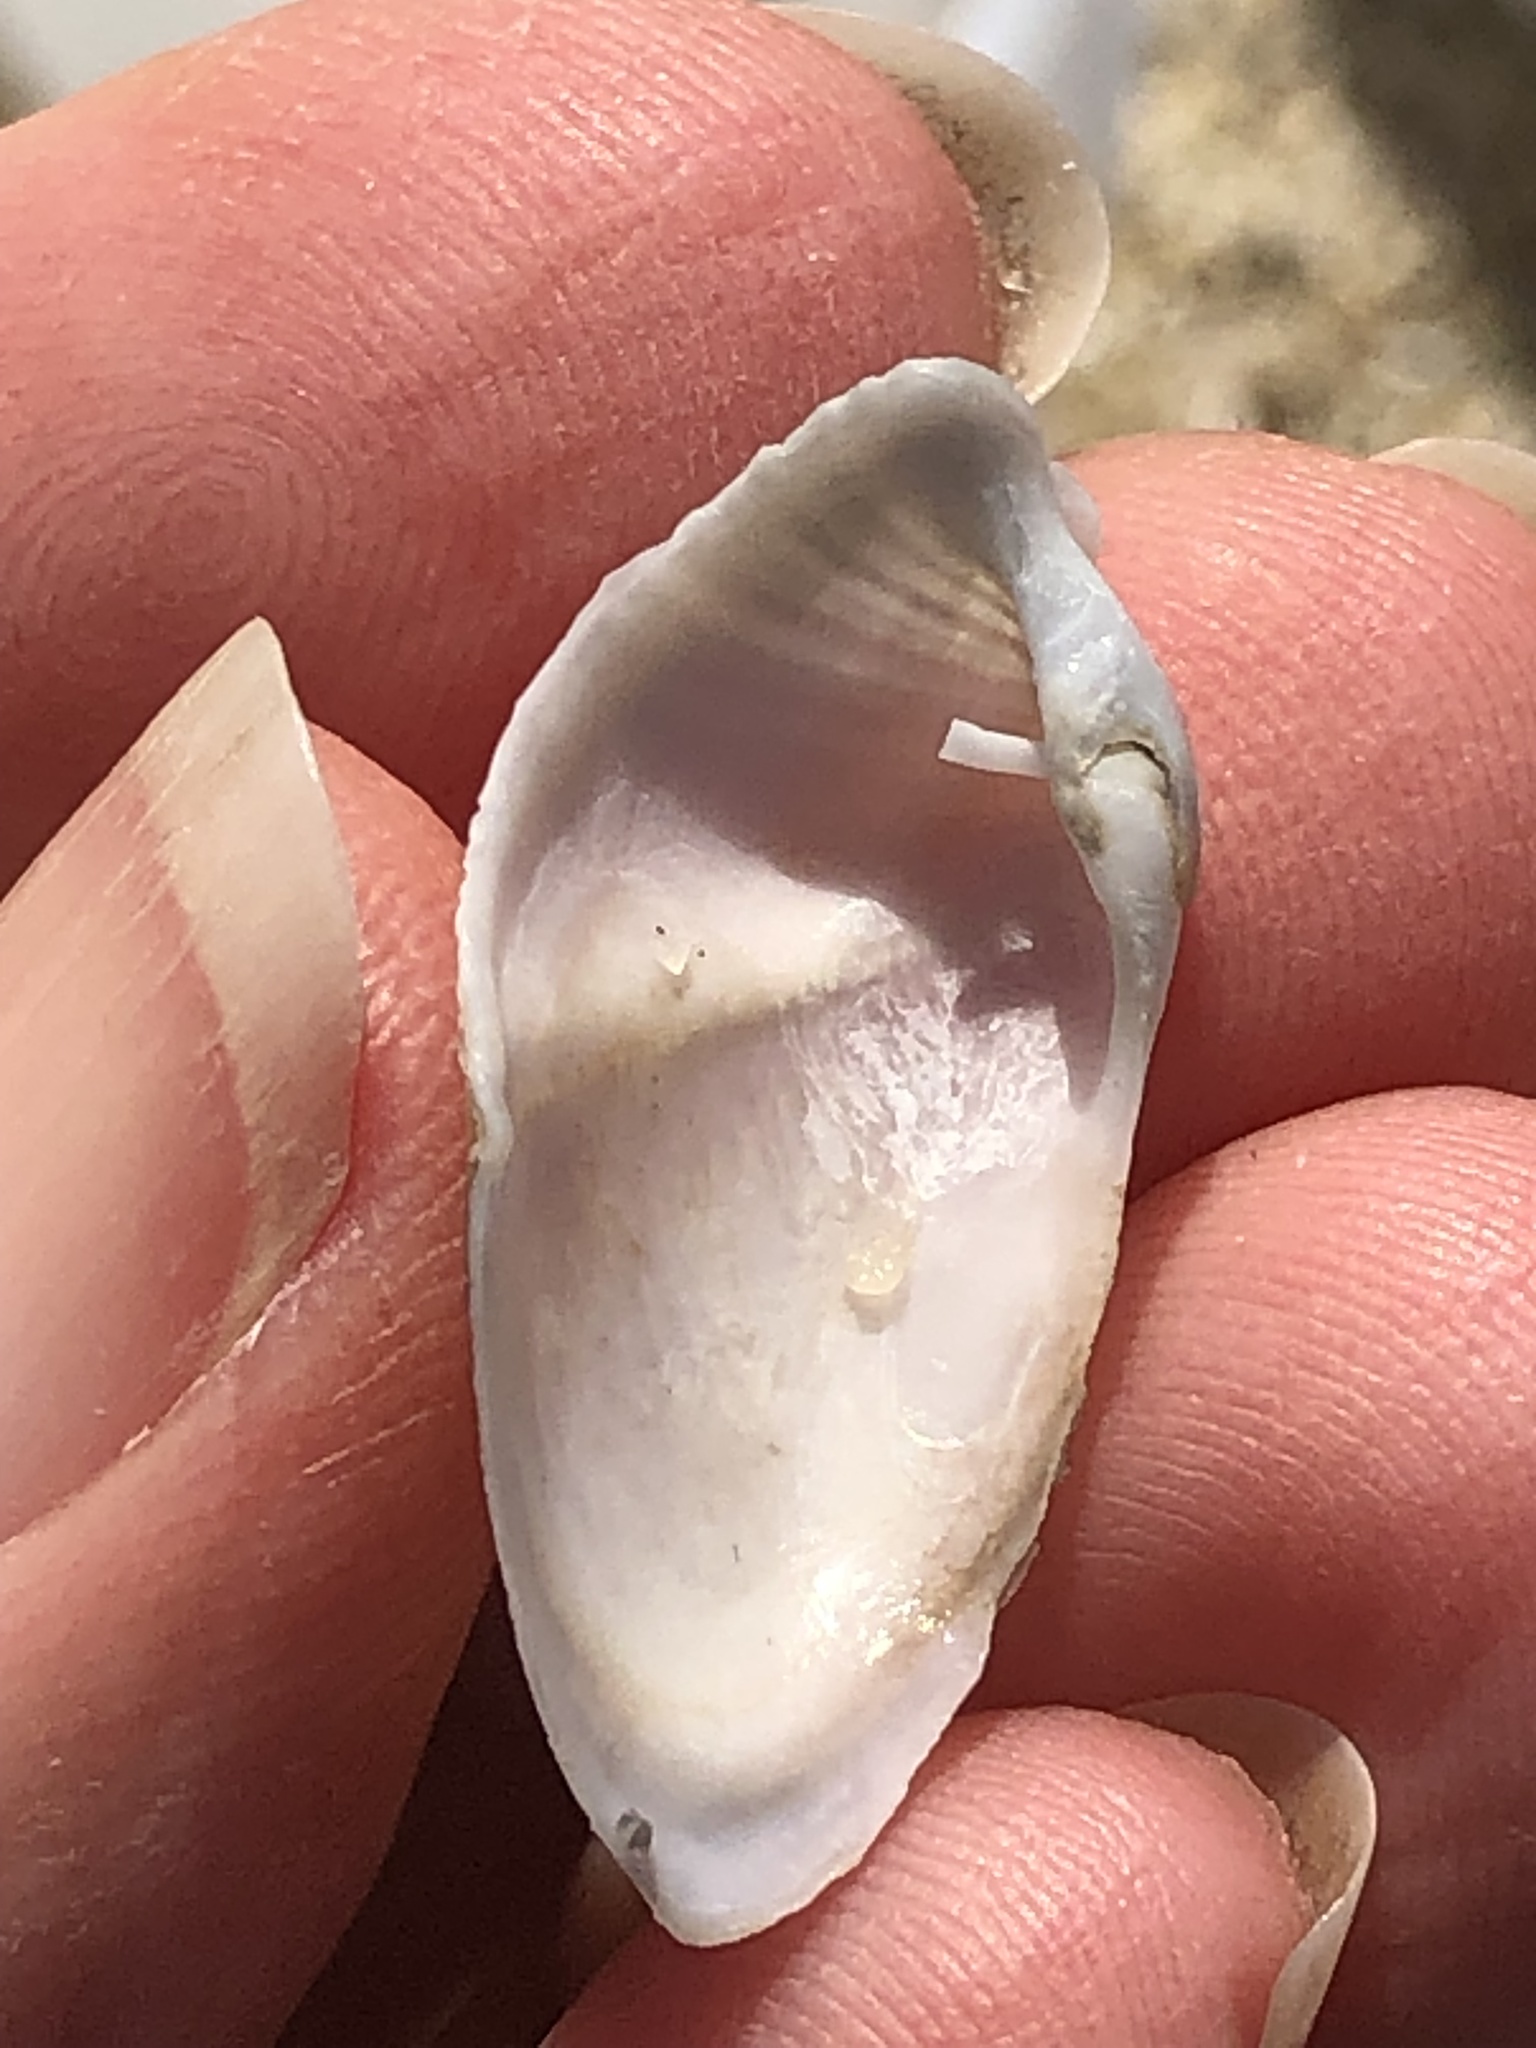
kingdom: Animalia
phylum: Mollusca
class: Bivalvia
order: Myida
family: Pholadidae
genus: Zirfaea
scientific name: Zirfaea pilsbryi
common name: Rough piddock
